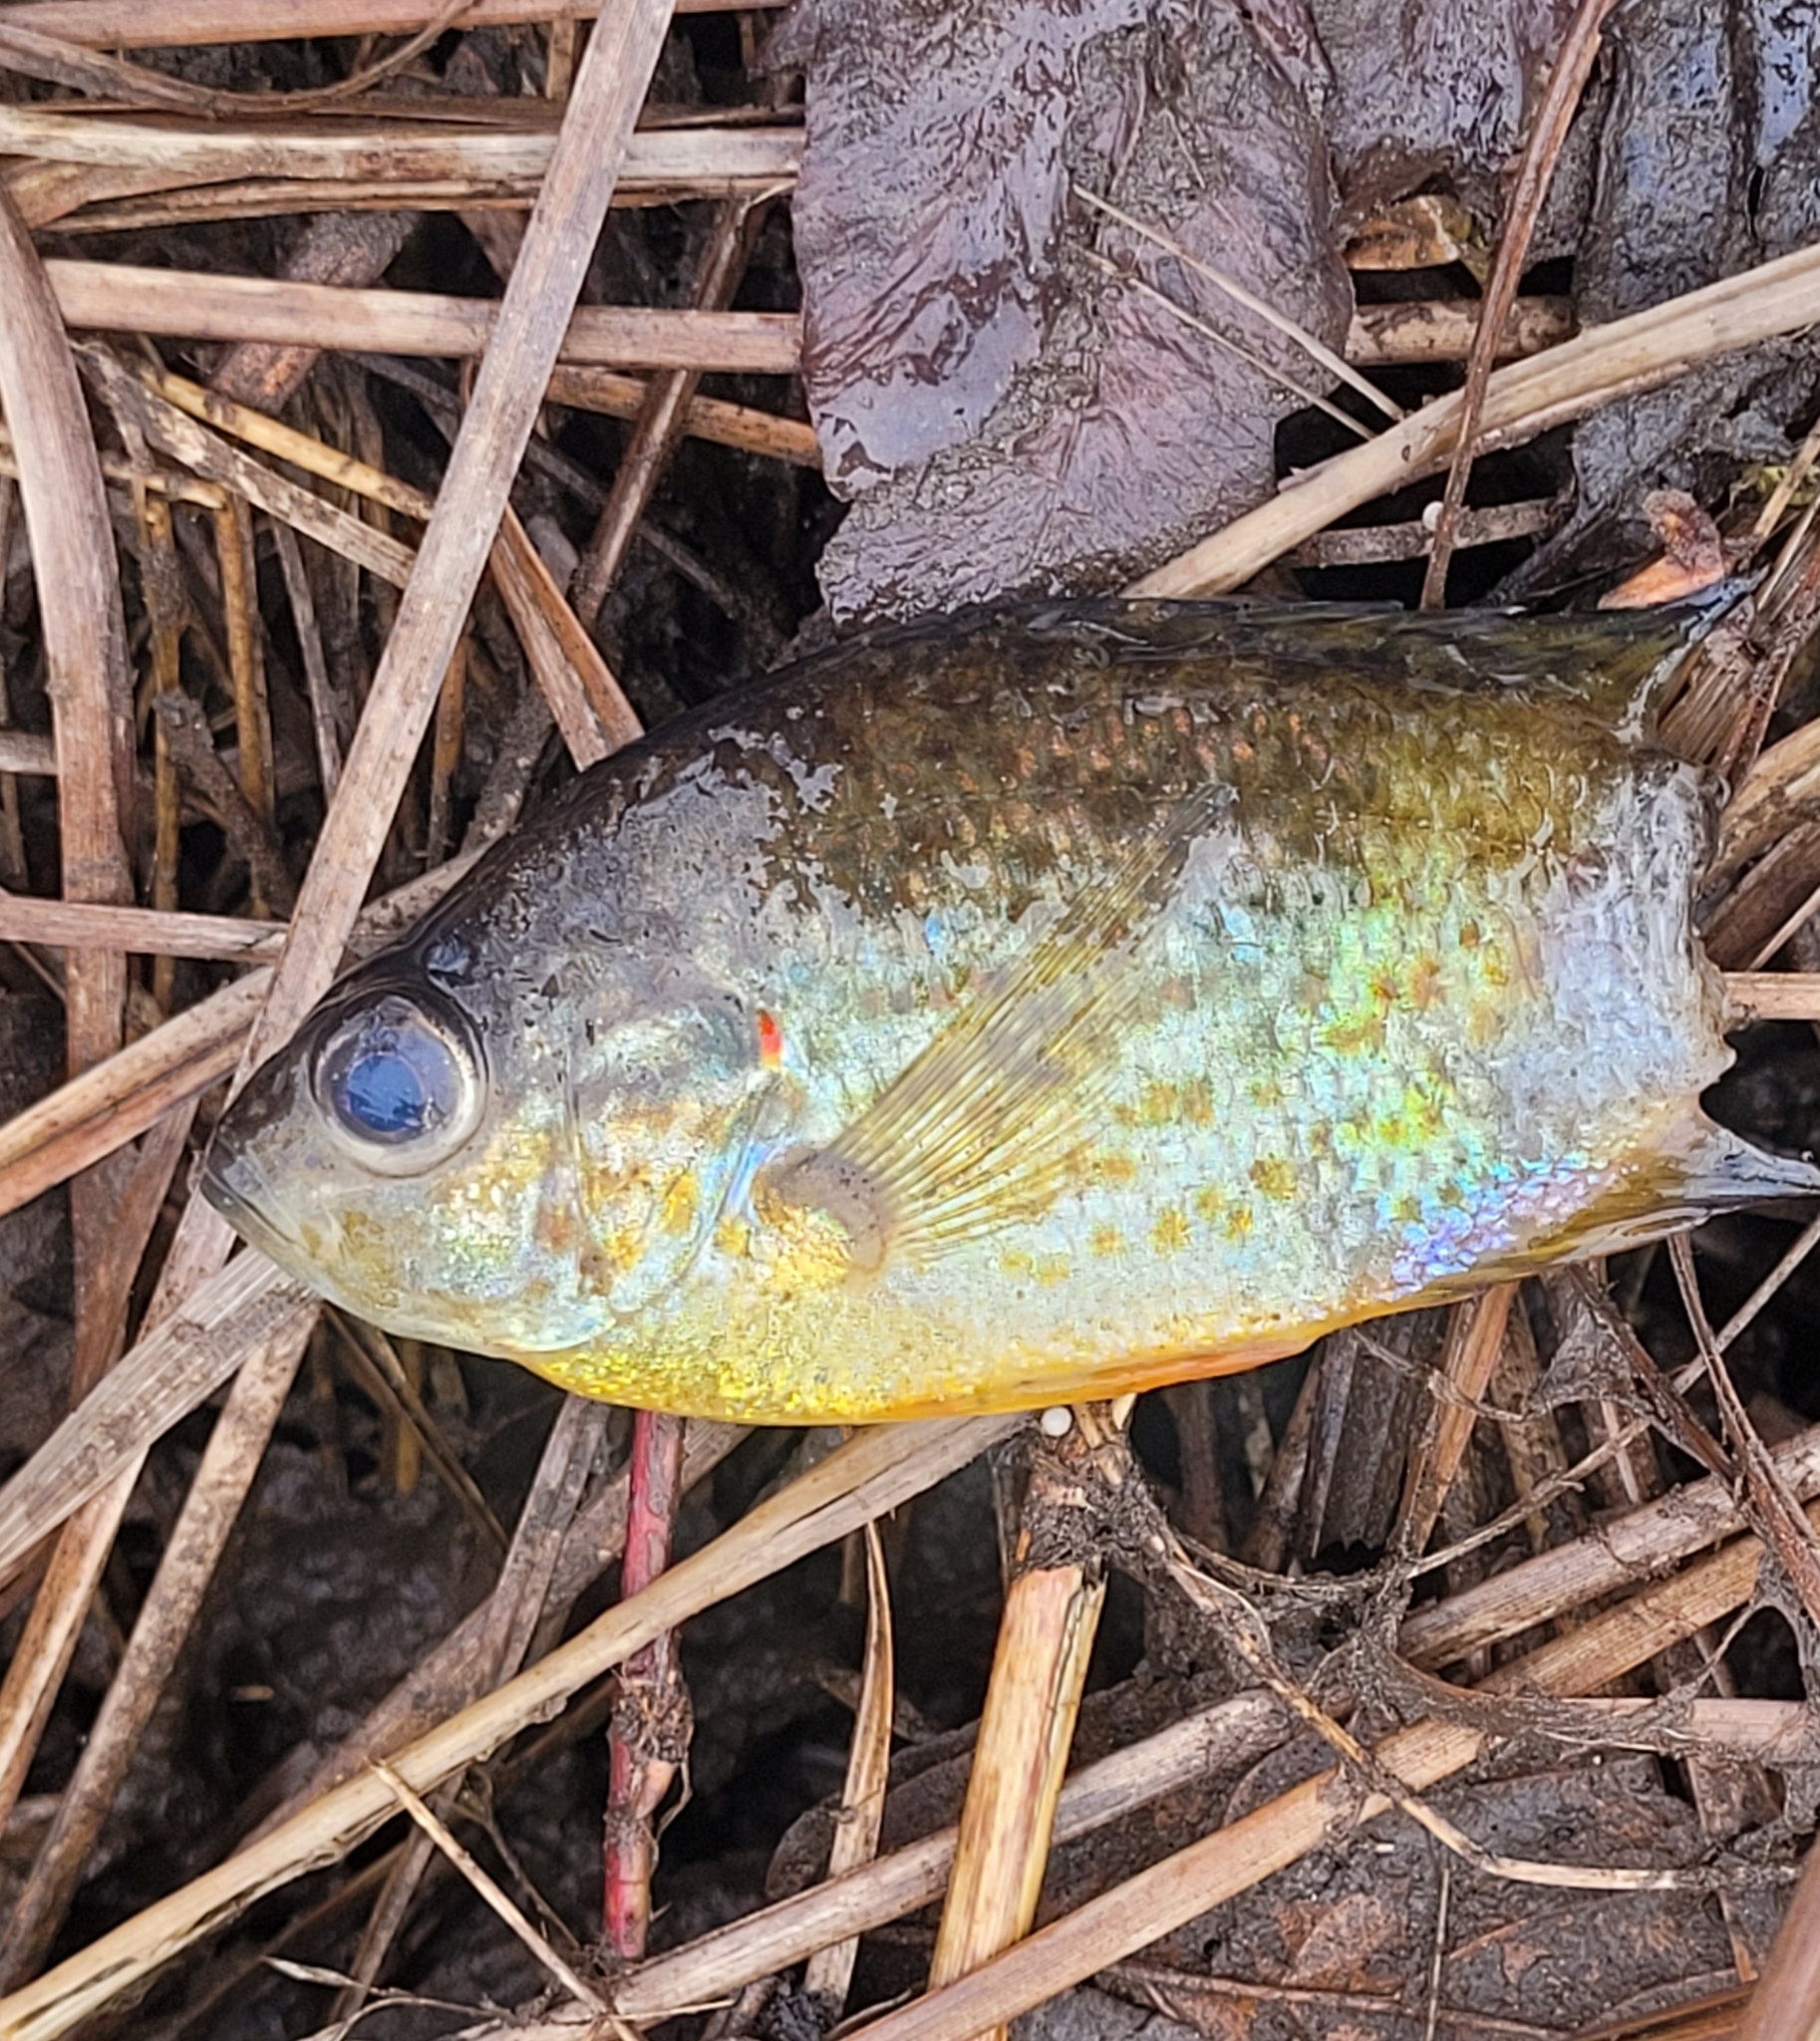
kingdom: Animalia
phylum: Chordata
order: Perciformes
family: Centrarchidae
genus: Lepomis
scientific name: Lepomis gibbosus
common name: Pumpkinseed
